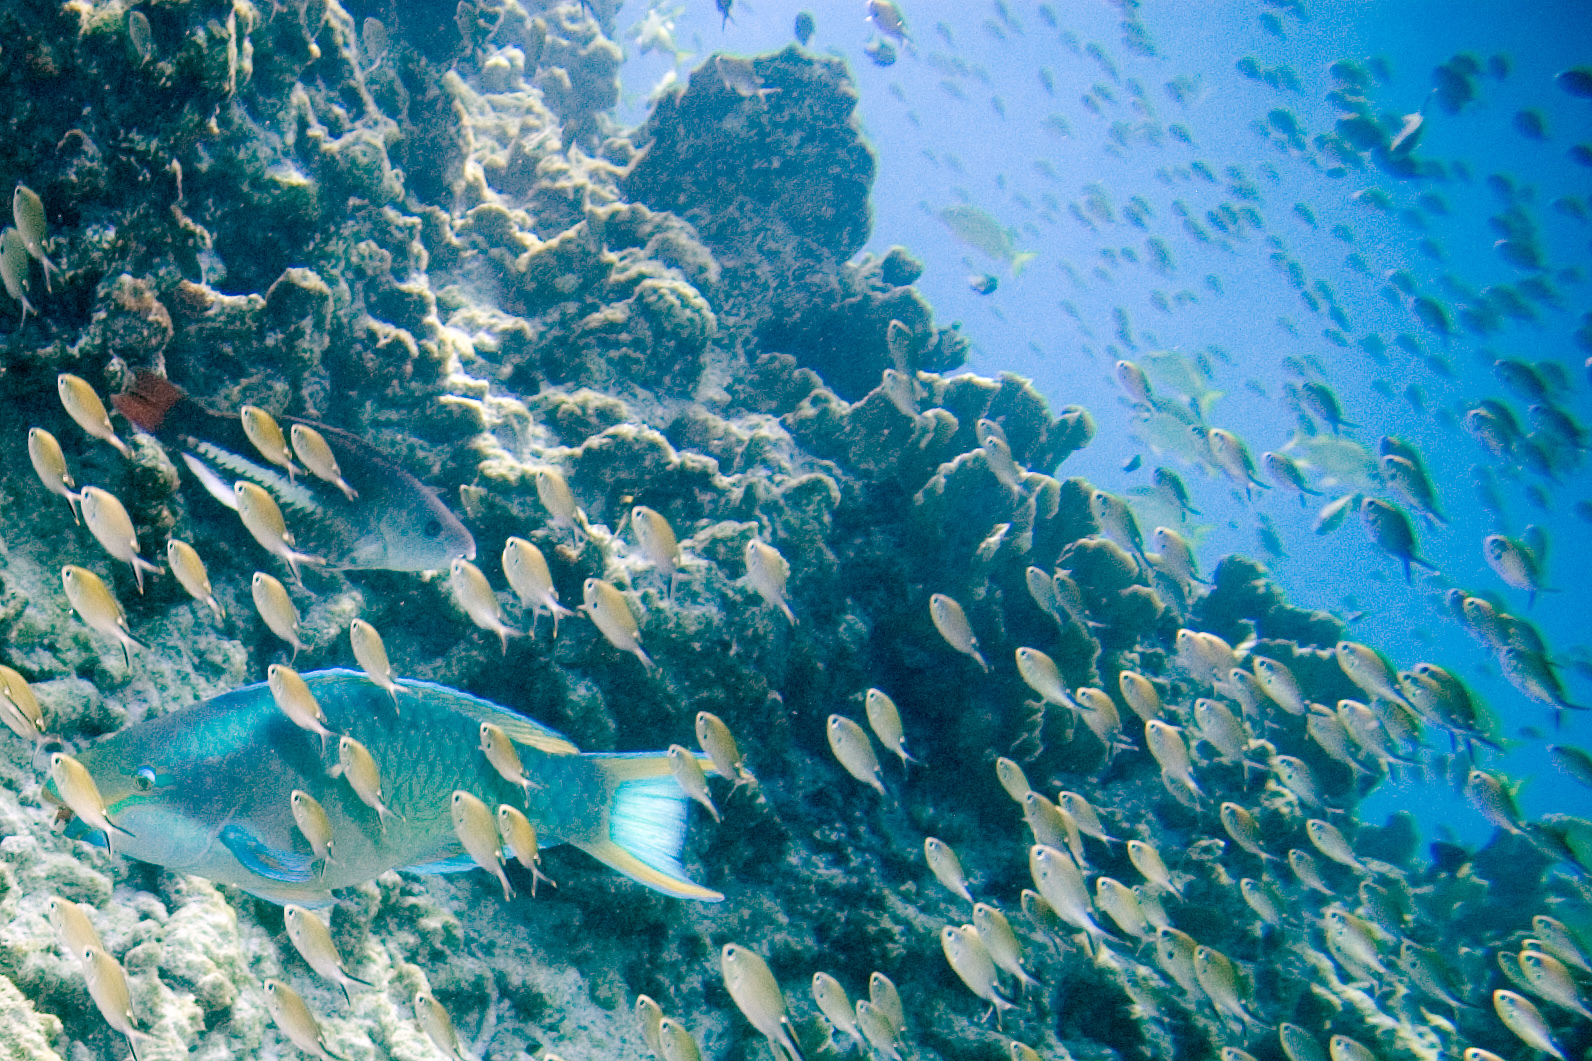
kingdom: Animalia
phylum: Chordata
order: Perciformes
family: Pomacentridae
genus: Chromis
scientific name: Chromis multilineata
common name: Brown chromis
